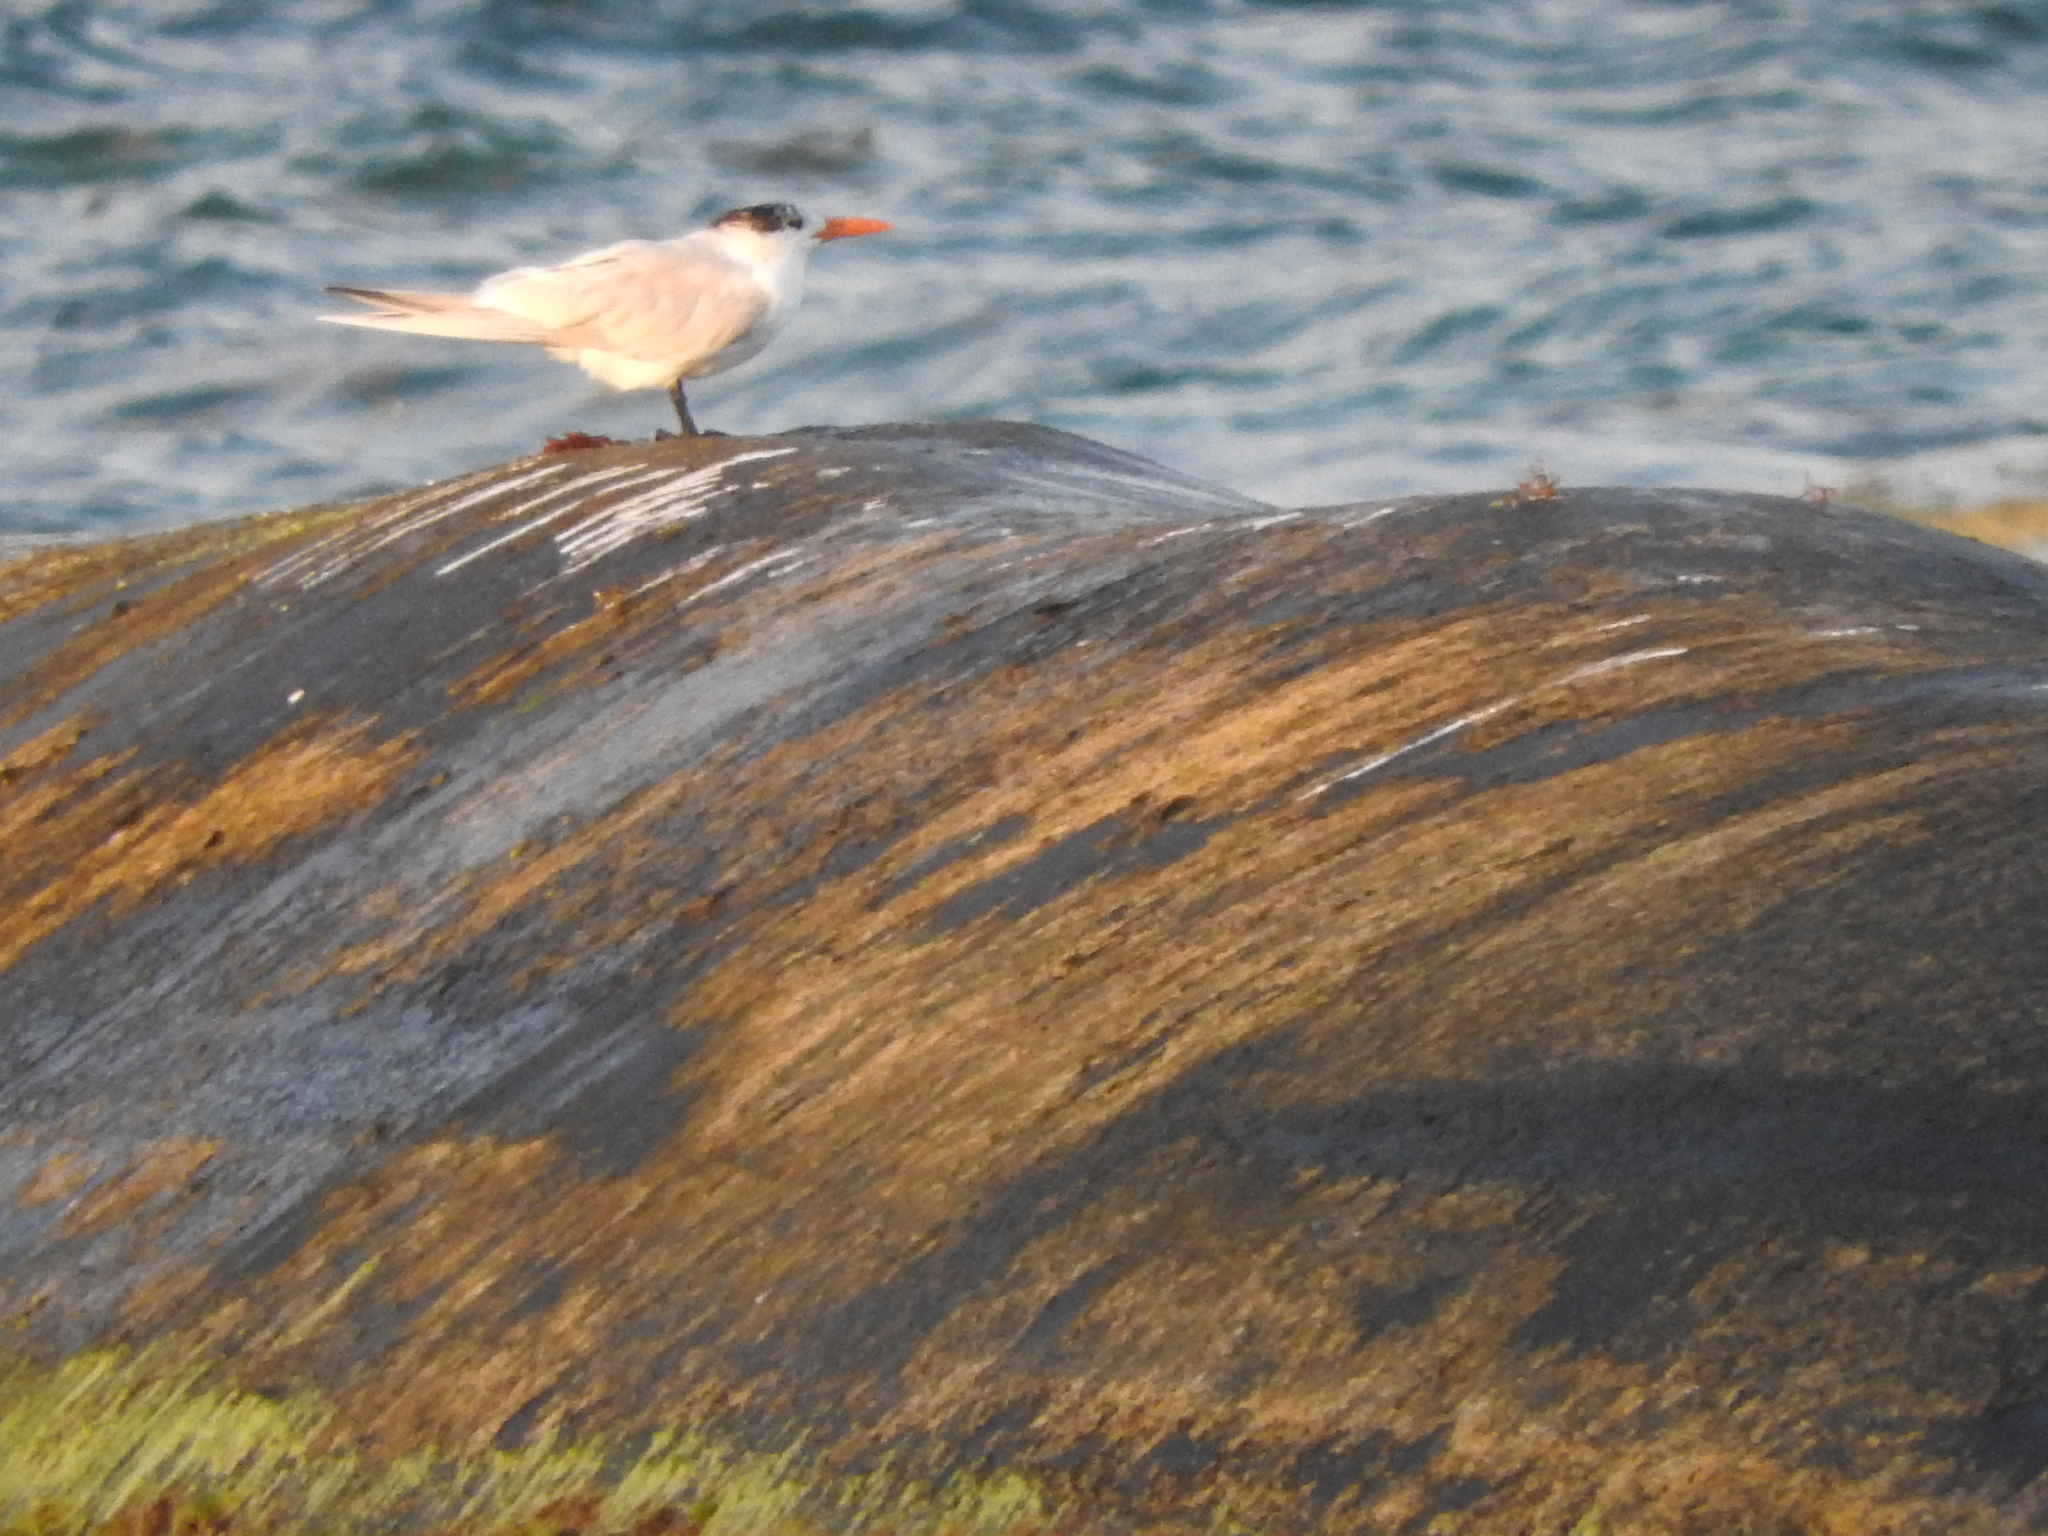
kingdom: Animalia
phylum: Chordata
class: Aves
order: Charadriiformes
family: Laridae
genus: Thalasseus
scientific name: Thalasseus maximus
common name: Royal tern
